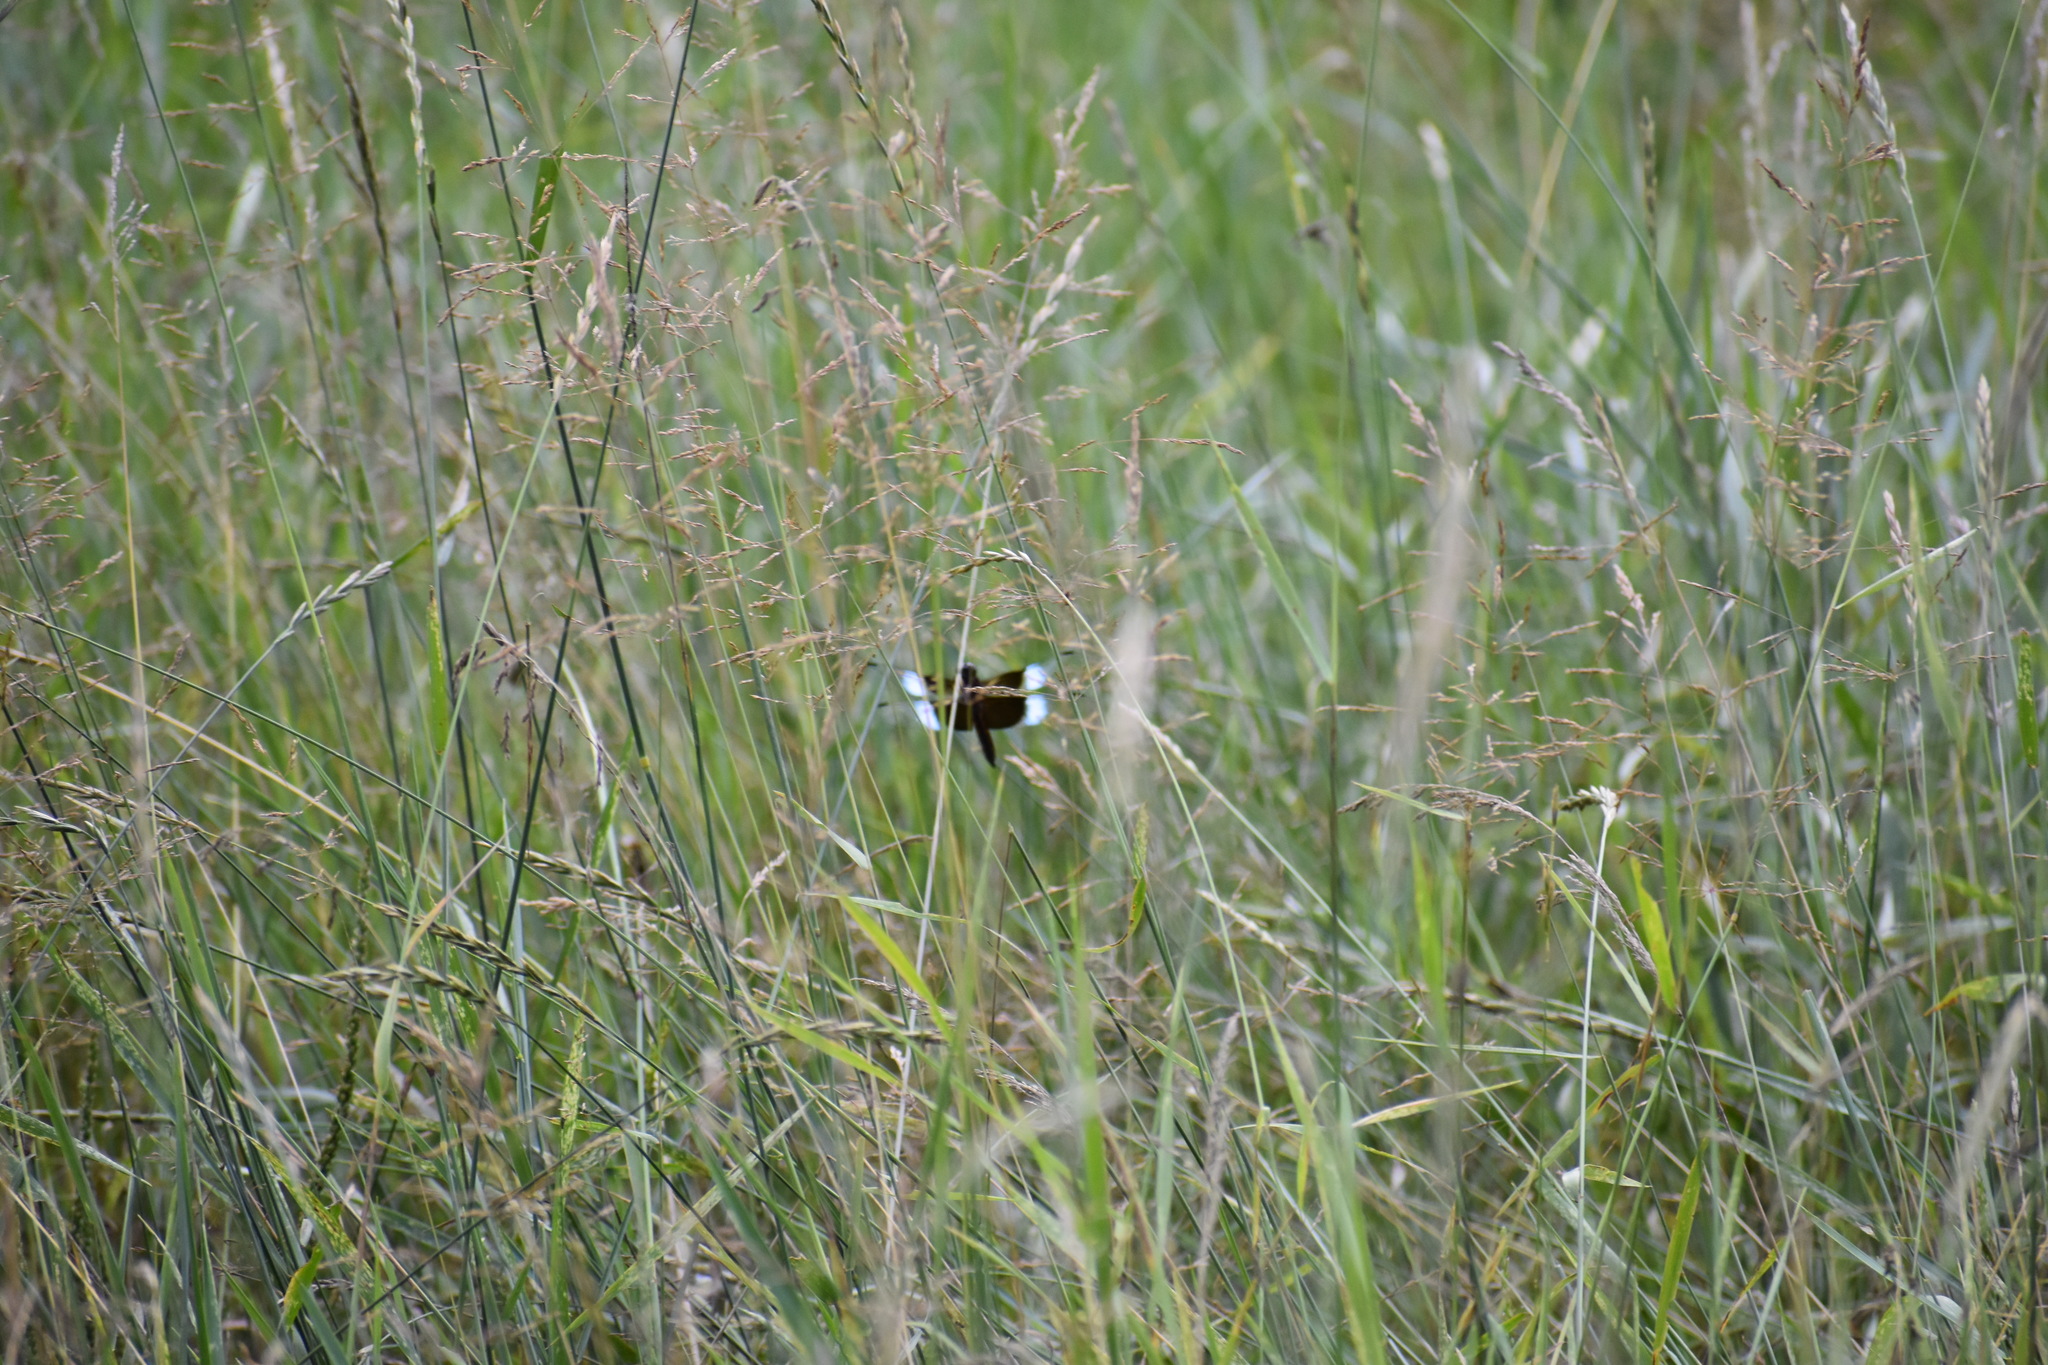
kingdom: Animalia
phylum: Arthropoda
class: Insecta
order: Odonata
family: Libellulidae
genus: Libellula
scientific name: Libellula luctuosa
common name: Widow skimmer
